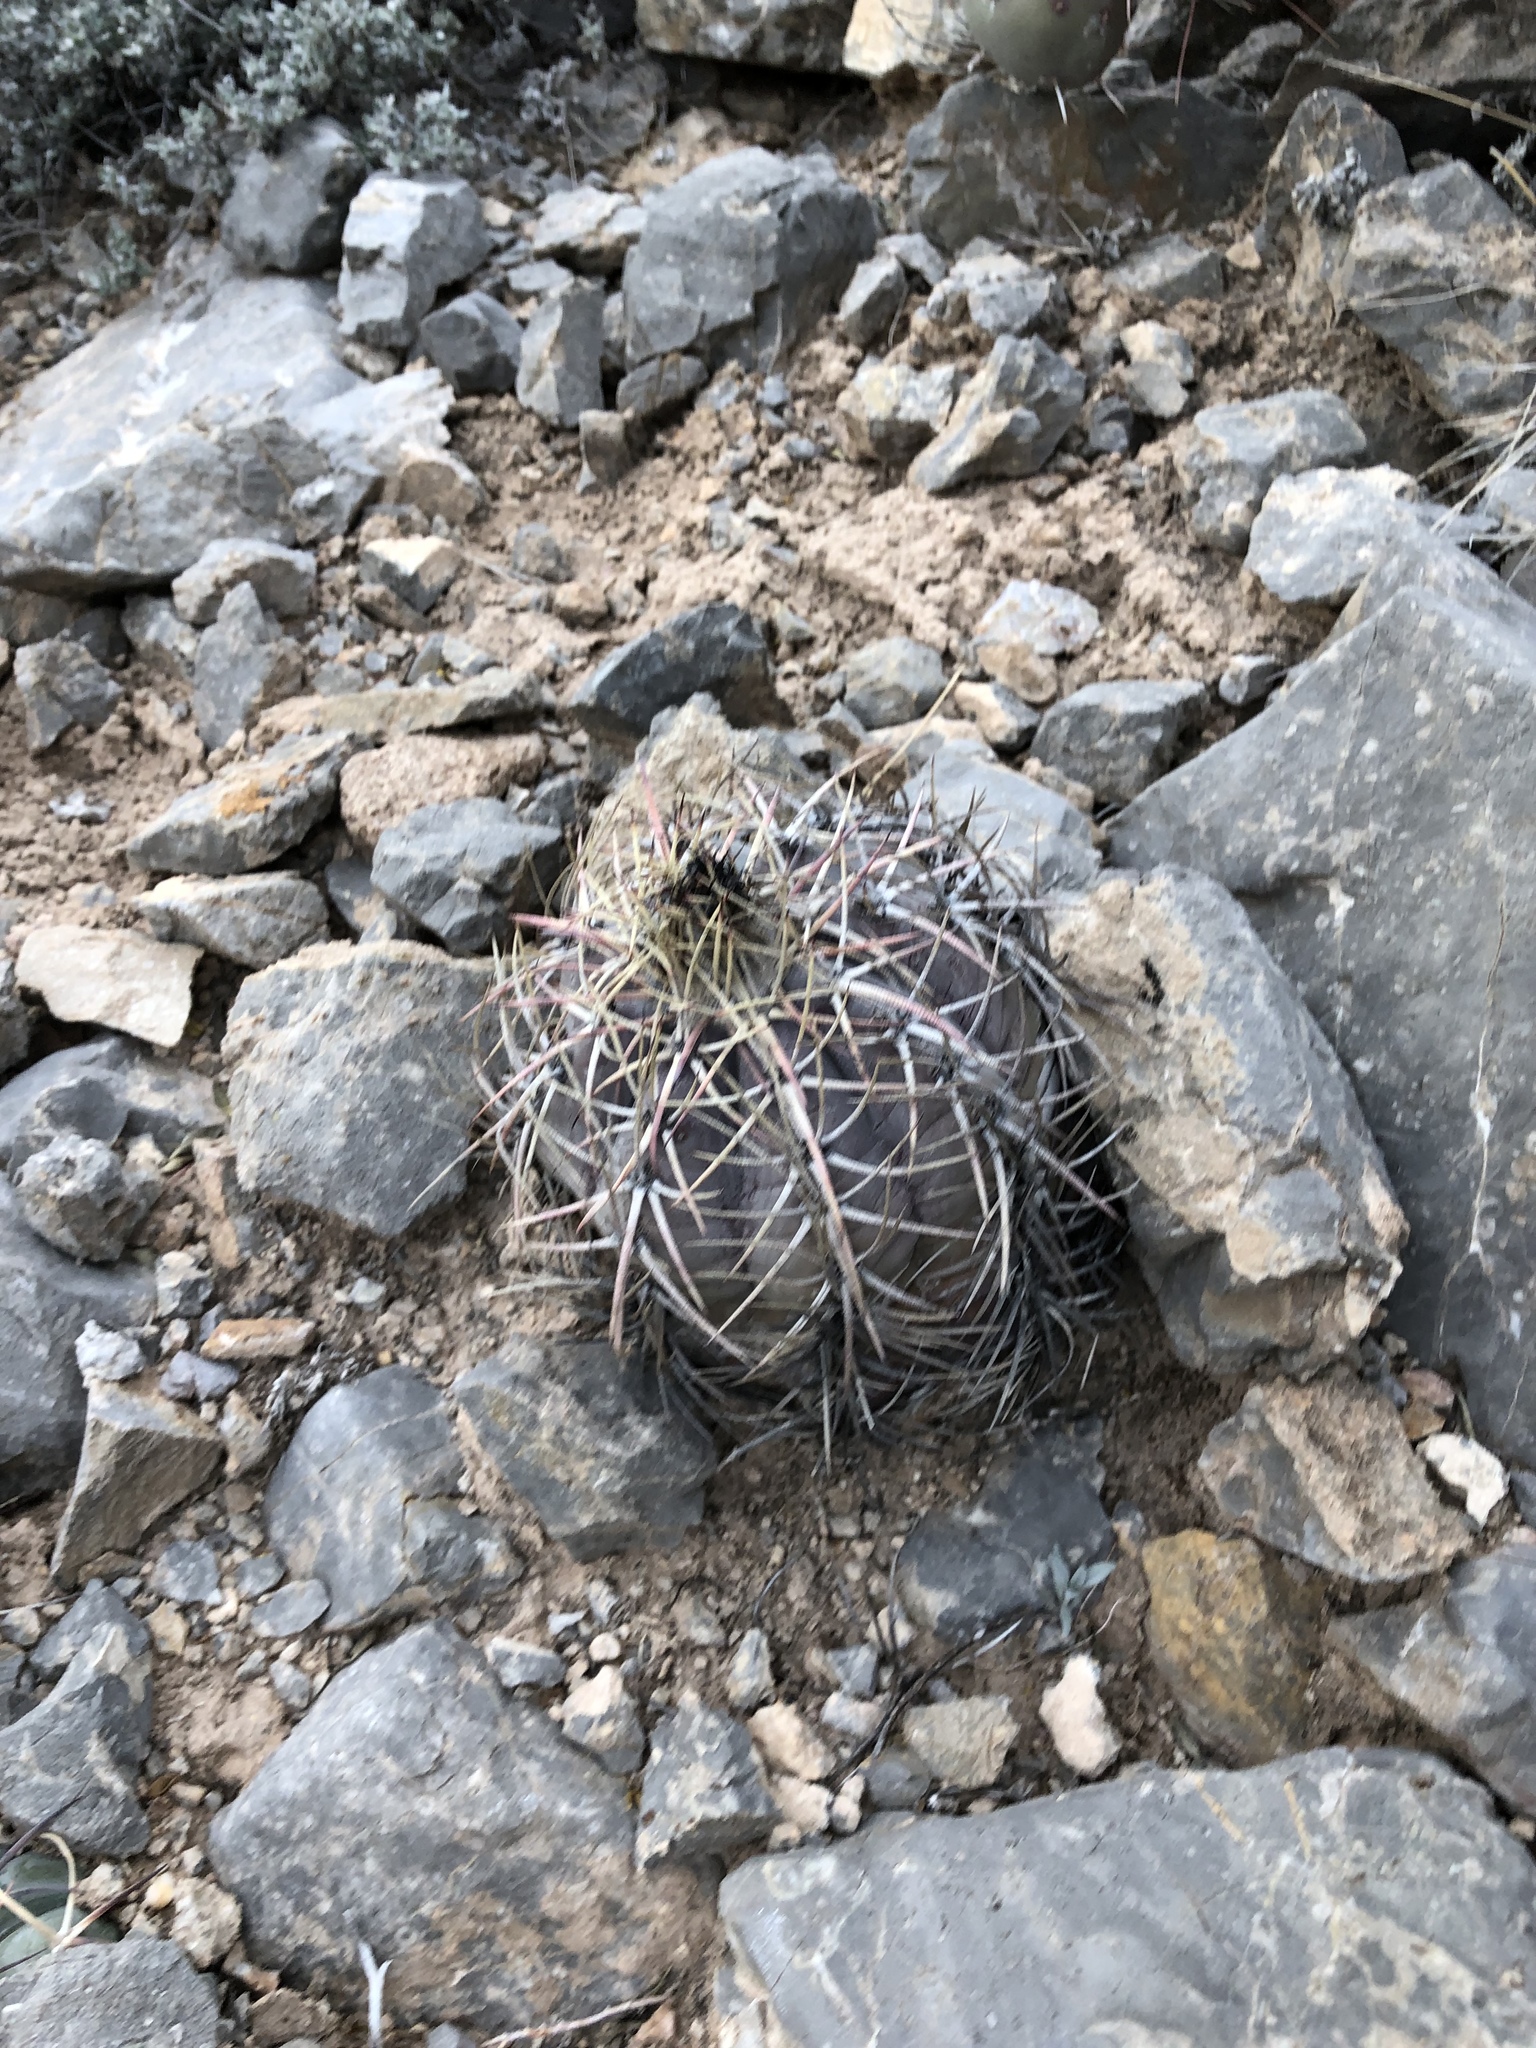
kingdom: Plantae
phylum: Tracheophyta
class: Magnoliopsida
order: Caryophyllales
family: Cactaceae
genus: Echinocactus
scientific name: Echinocactus horizonthalonius
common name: Devilshead
